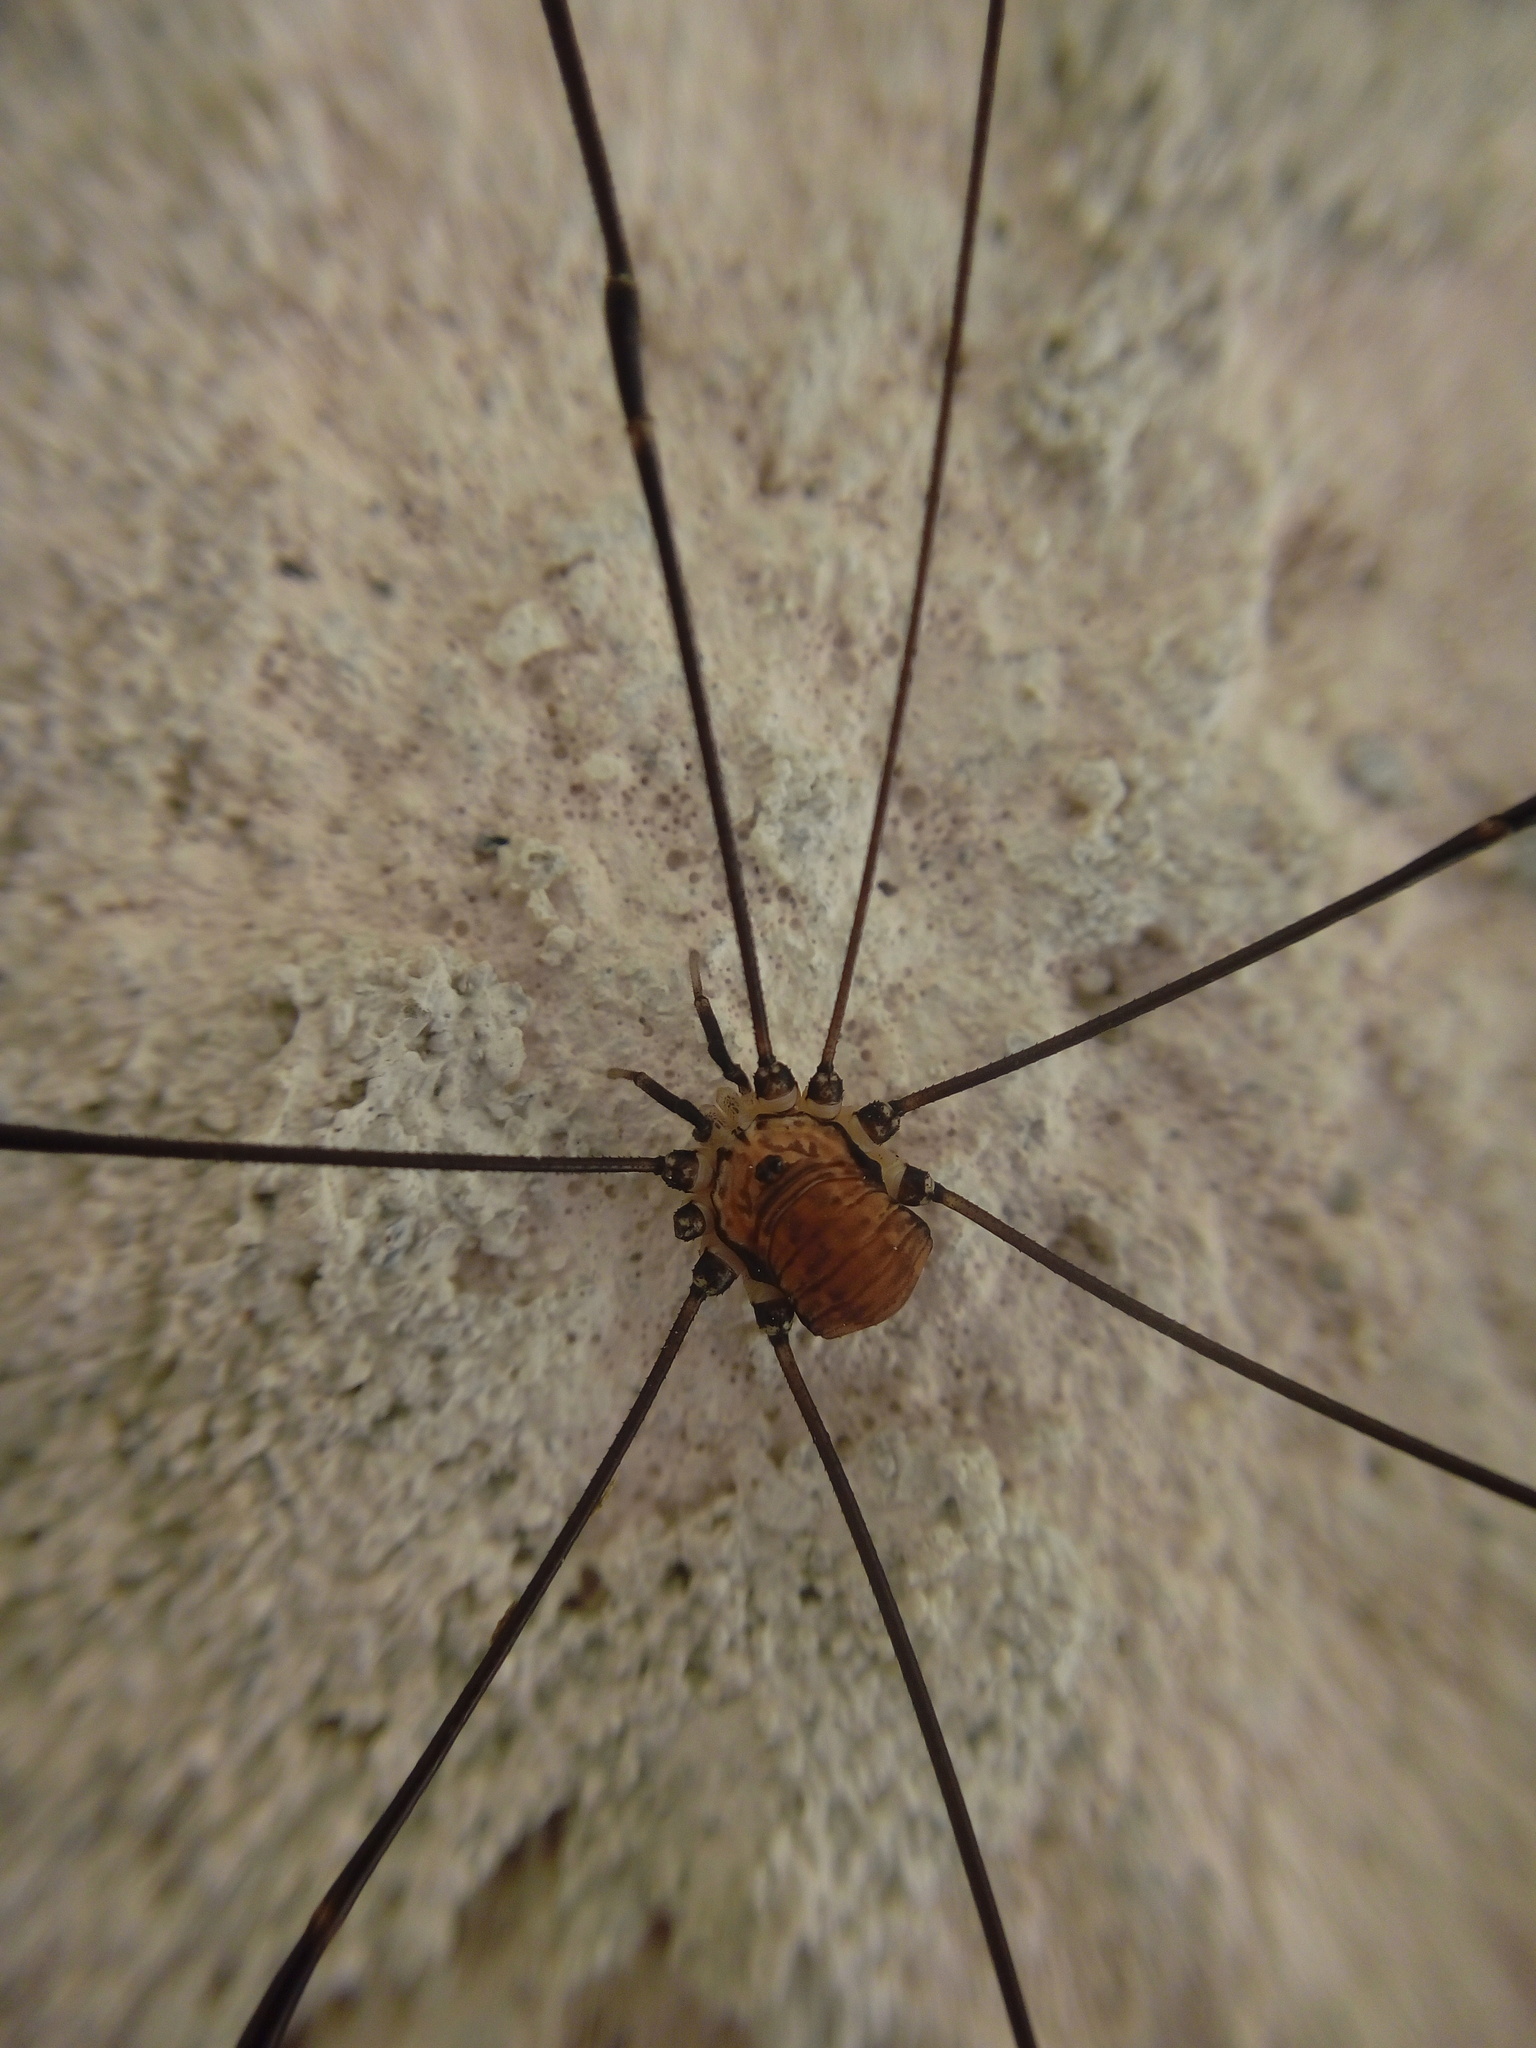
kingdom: Animalia
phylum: Arthropoda
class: Arachnida
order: Opiliones
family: Sclerosomatidae
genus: Leiobunum
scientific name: Leiobunum limbatum
